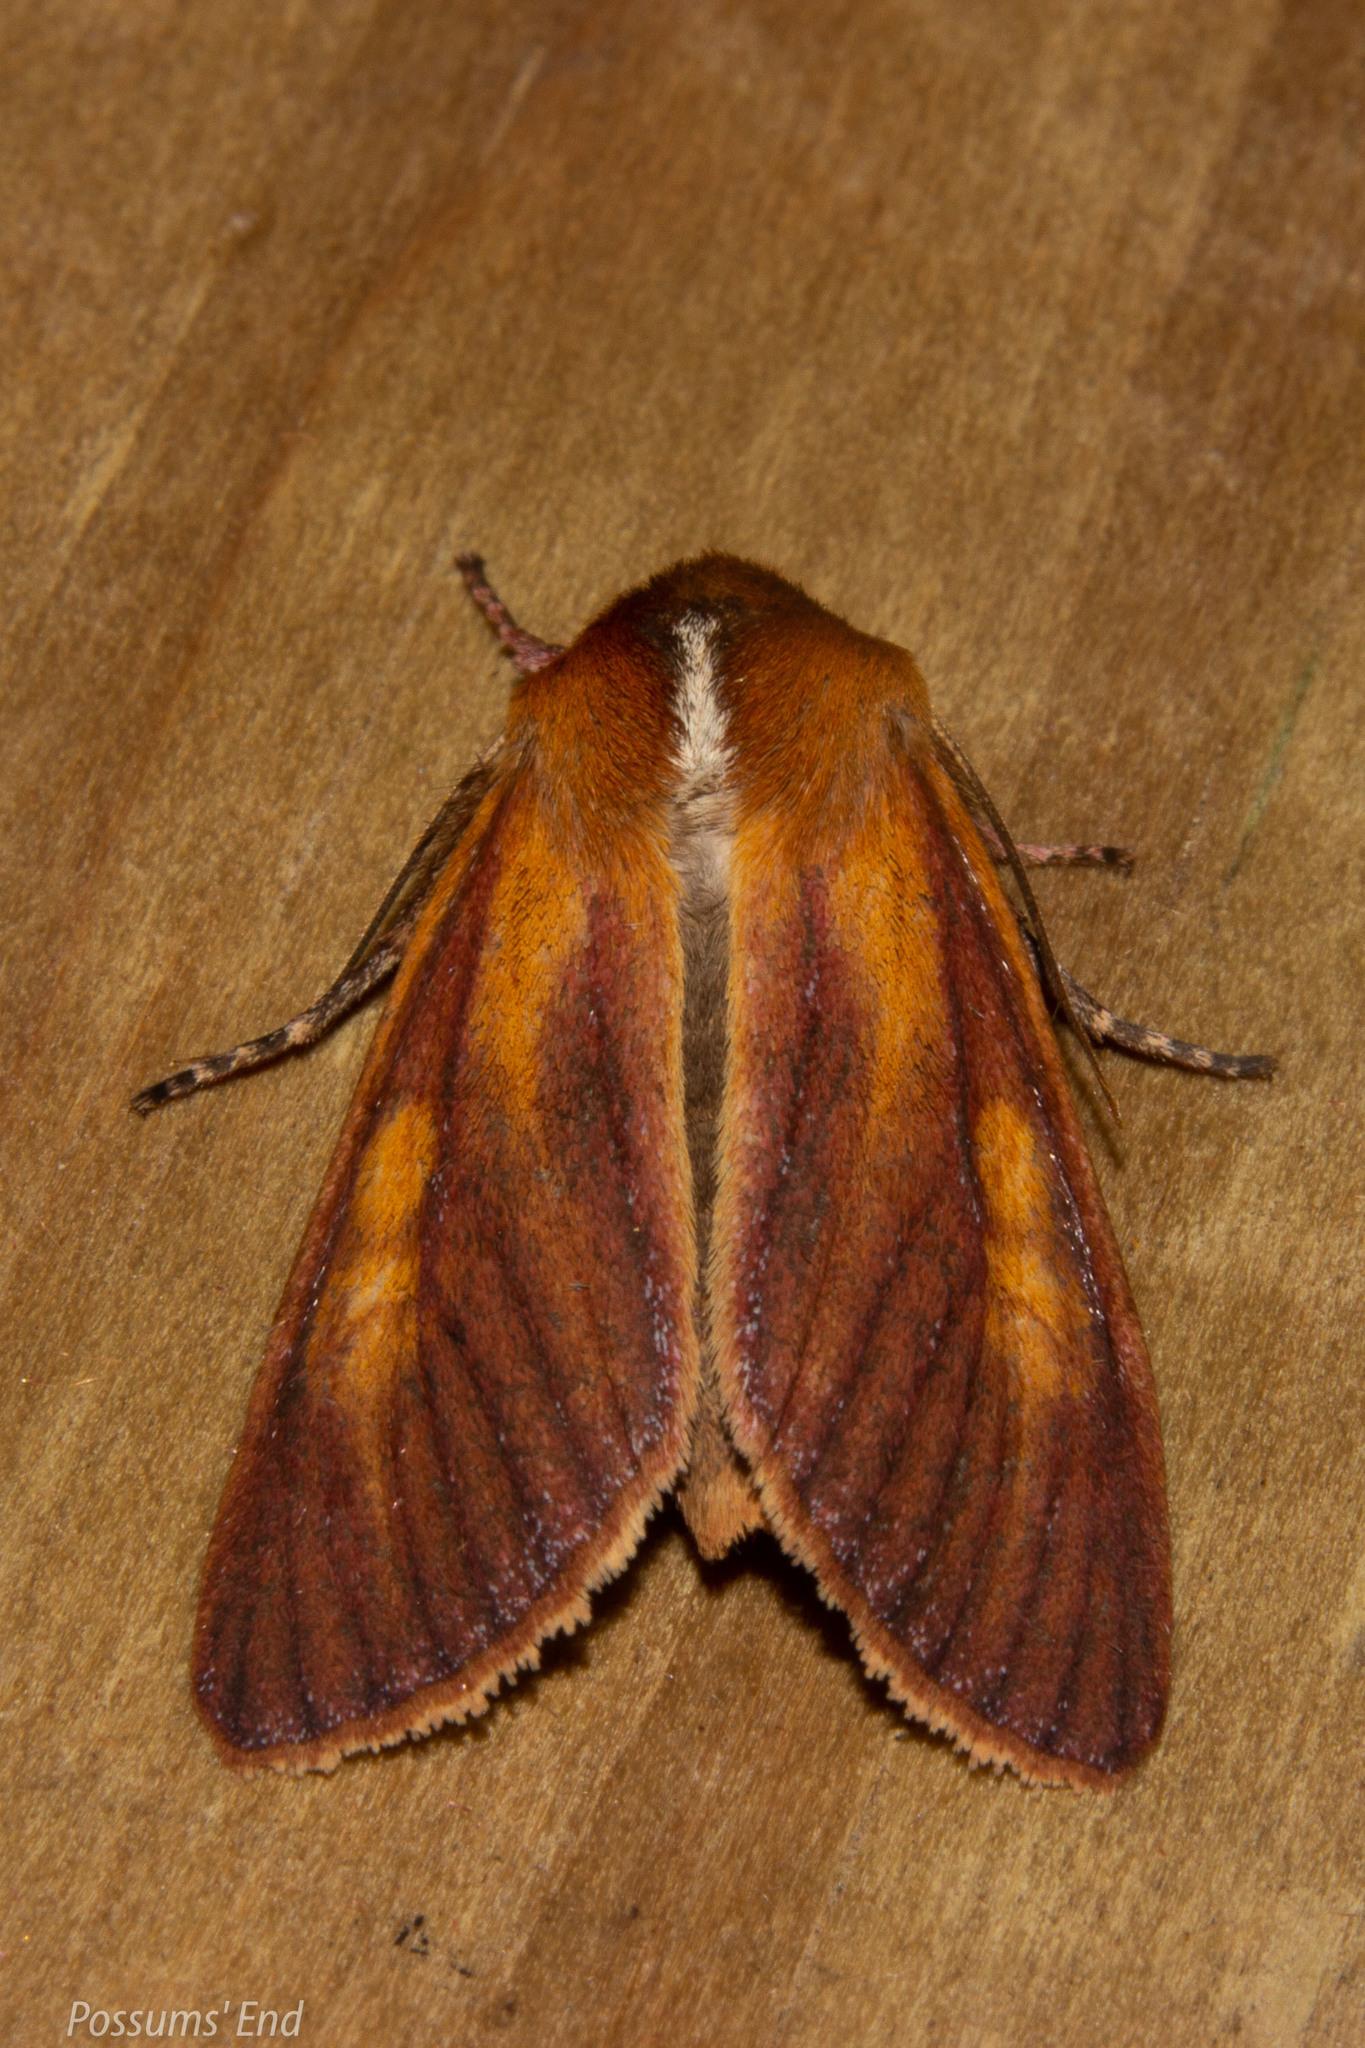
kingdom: Animalia
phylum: Arthropoda
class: Insecta
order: Lepidoptera
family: Noctuidae
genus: Ichneutica
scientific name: Ichneutica
